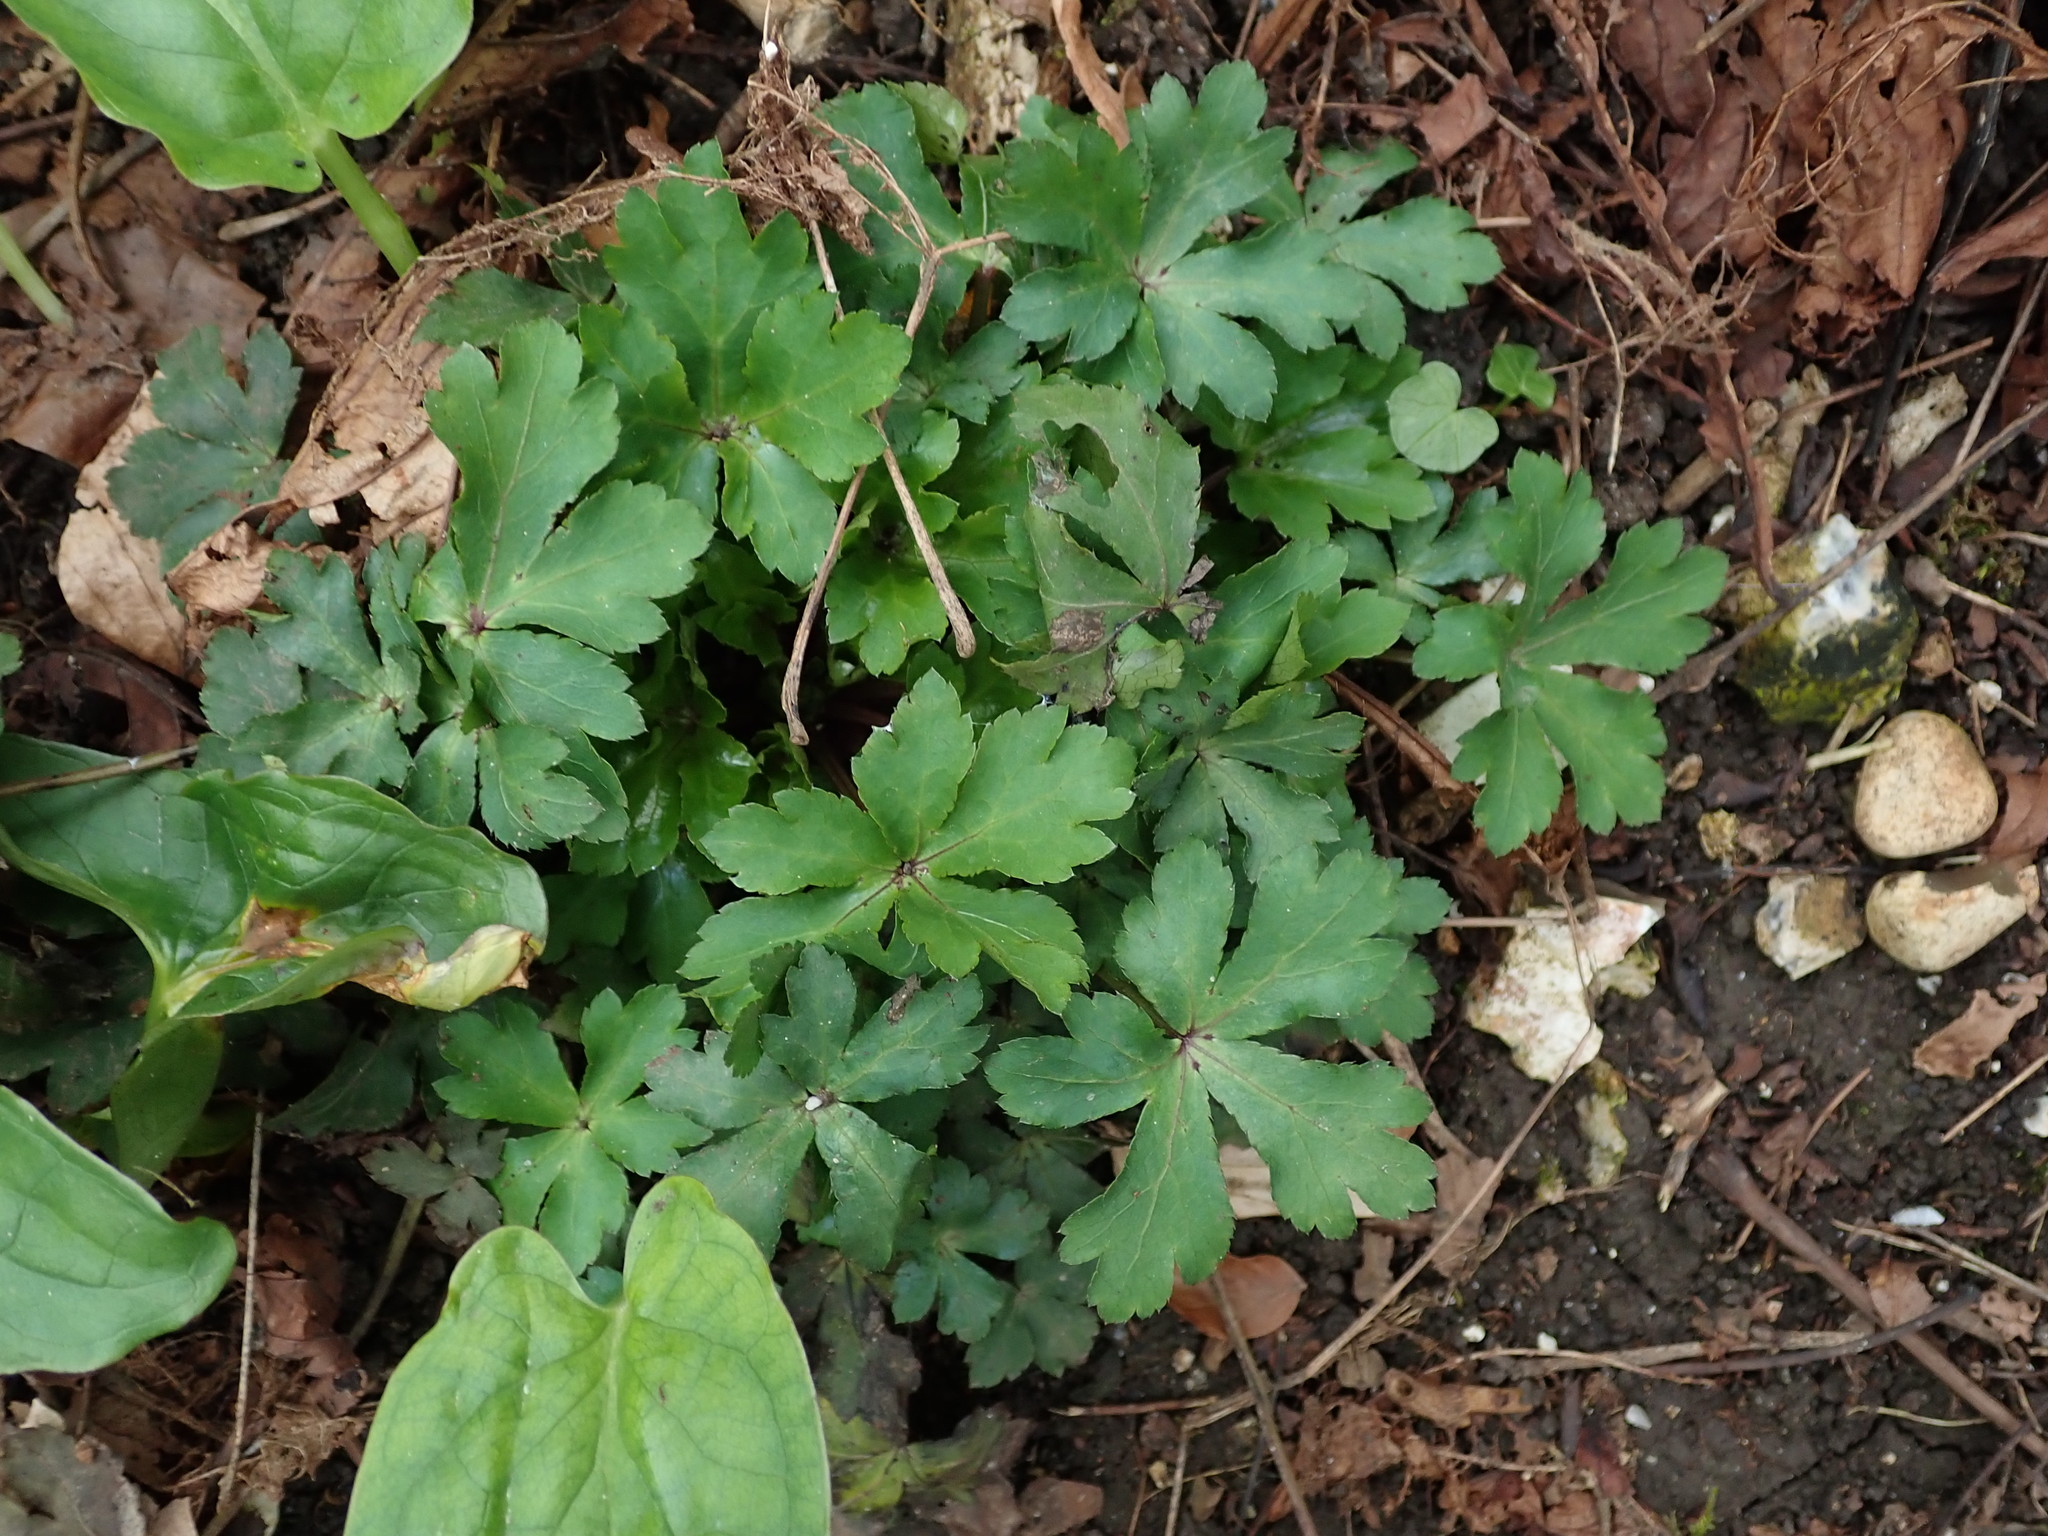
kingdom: Plantae
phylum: Tracheophyta
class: Magnoliopsida
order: Apiales
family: Apiaceae
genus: Sanicula
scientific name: Sanicula europaea
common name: Sanicle
